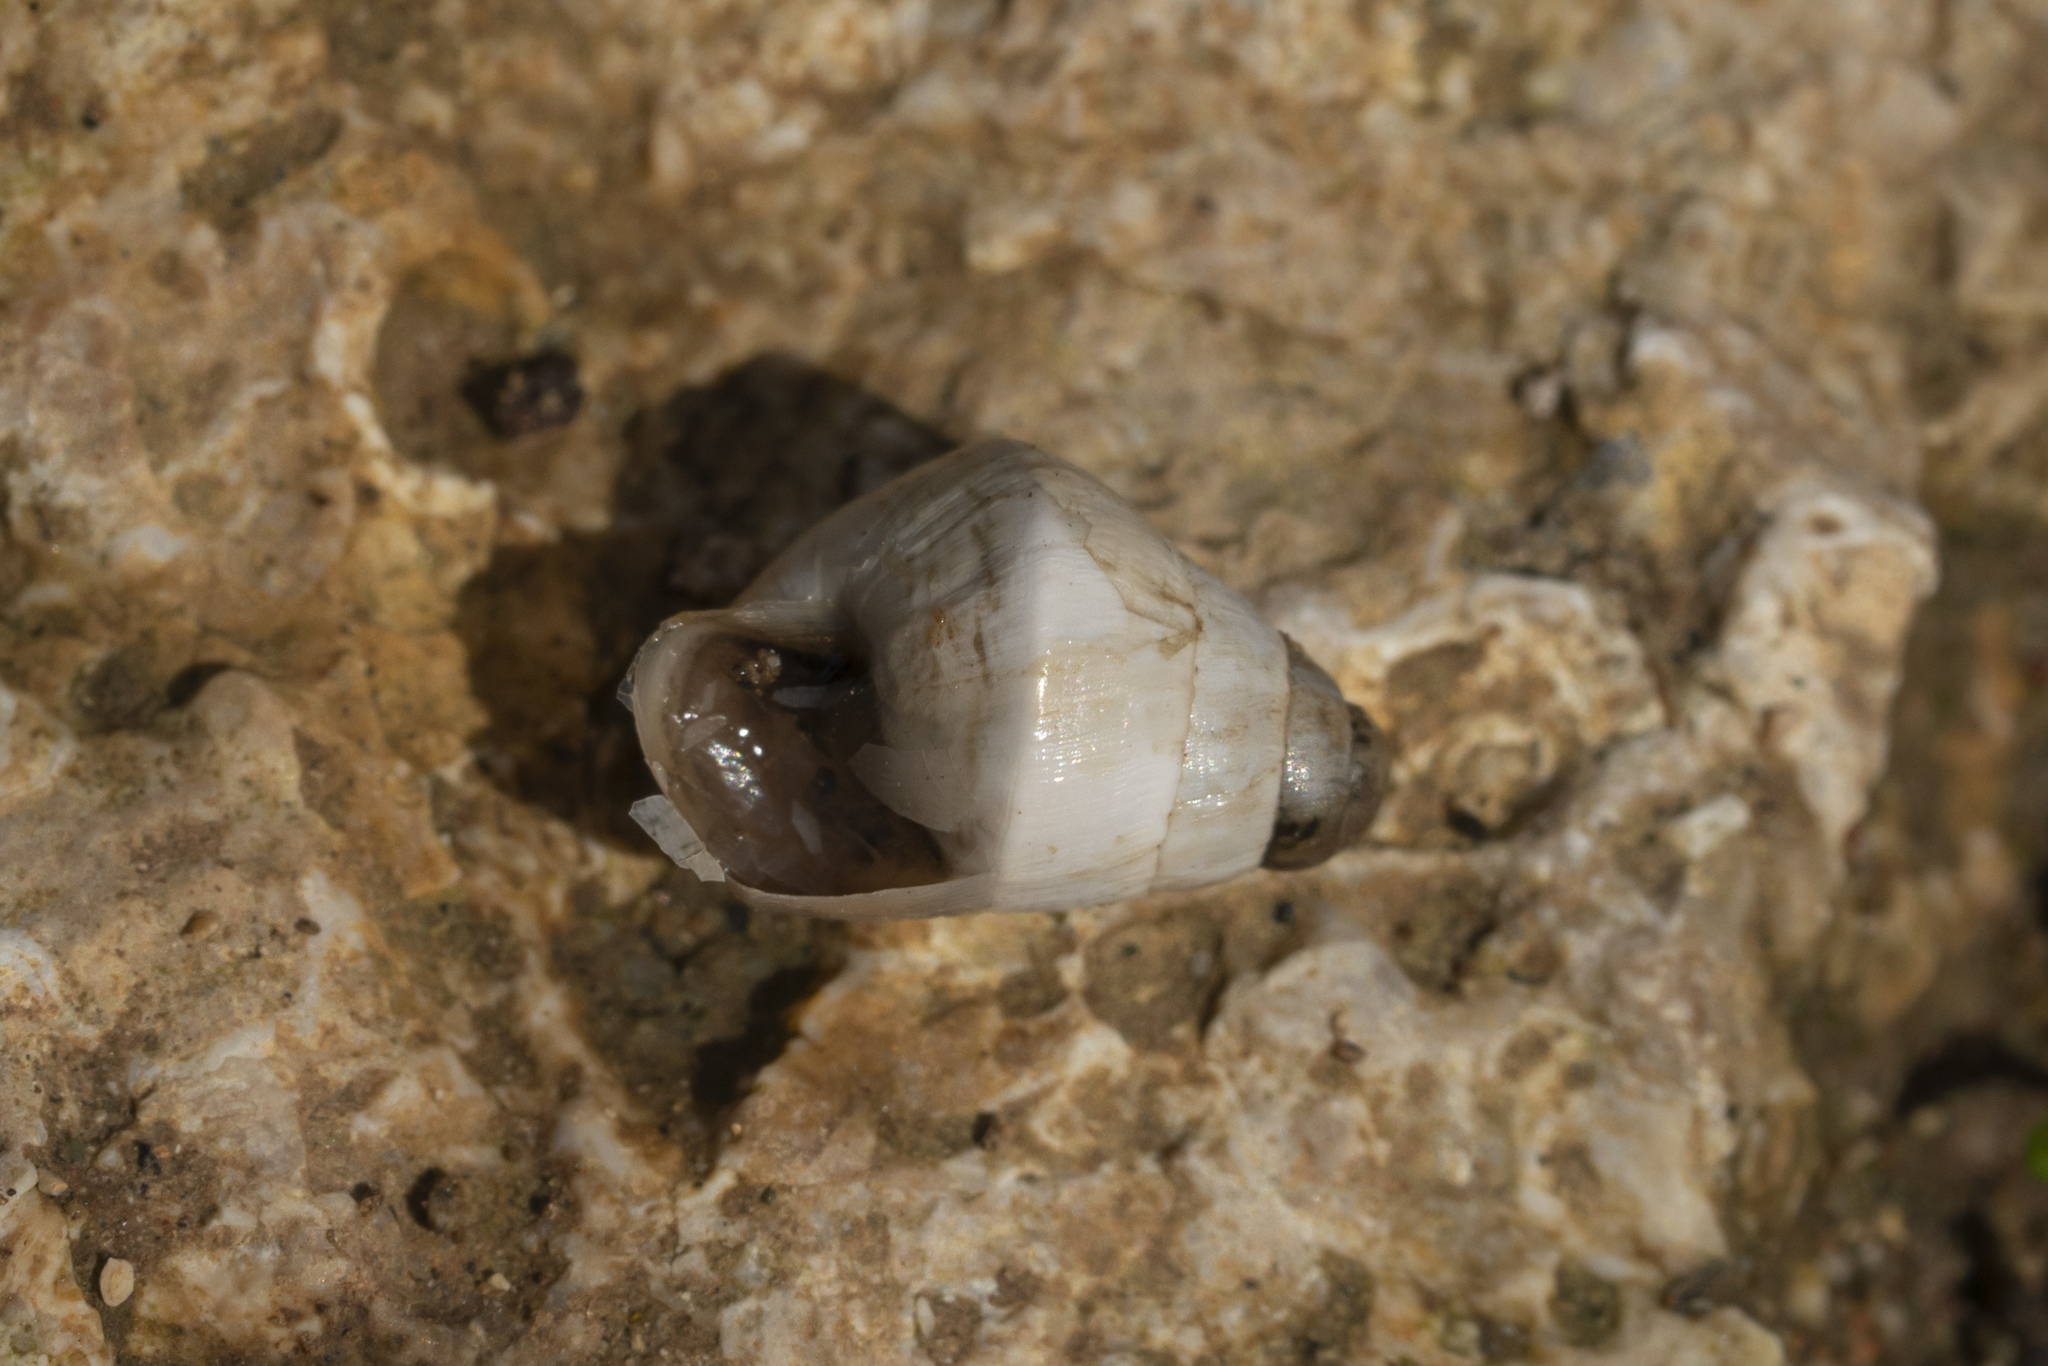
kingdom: Animalia
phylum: Mollusca
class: Gastropoda
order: Stylommatophora
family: Enidae
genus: Zebrina
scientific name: Zebrina fasciolata
